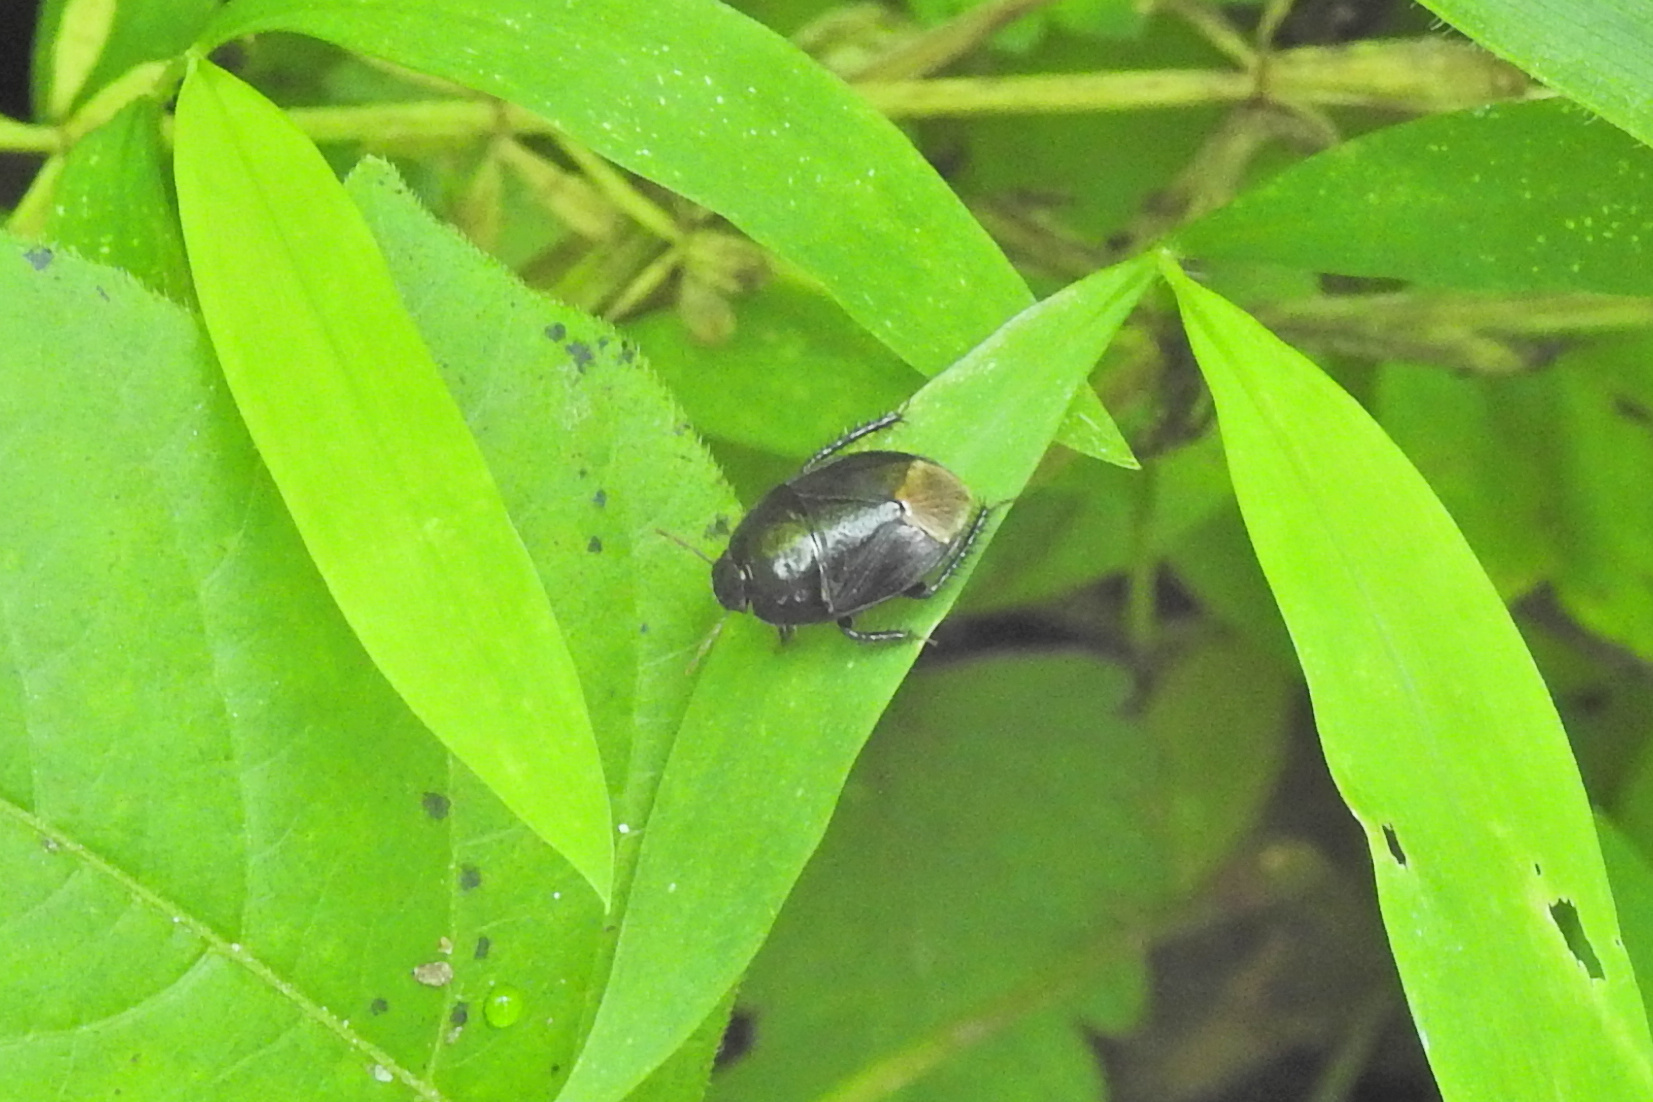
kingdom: Animalia
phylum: Arthropoda
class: Insecta
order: Hemiptera
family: Cydnidae
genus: Pangaeus
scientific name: Pangaeus bilineatus
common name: Burrower bug
